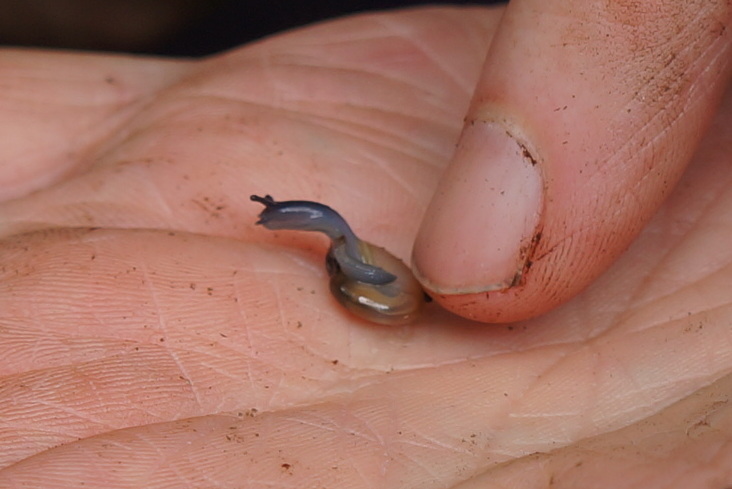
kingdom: Animalia
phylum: Mollusca
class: Gastropoda
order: Stylommatophora
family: Oxychilidae
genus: Oxychilus
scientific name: Oxychilus draparnaudi
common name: Draparnaud's glass snail
